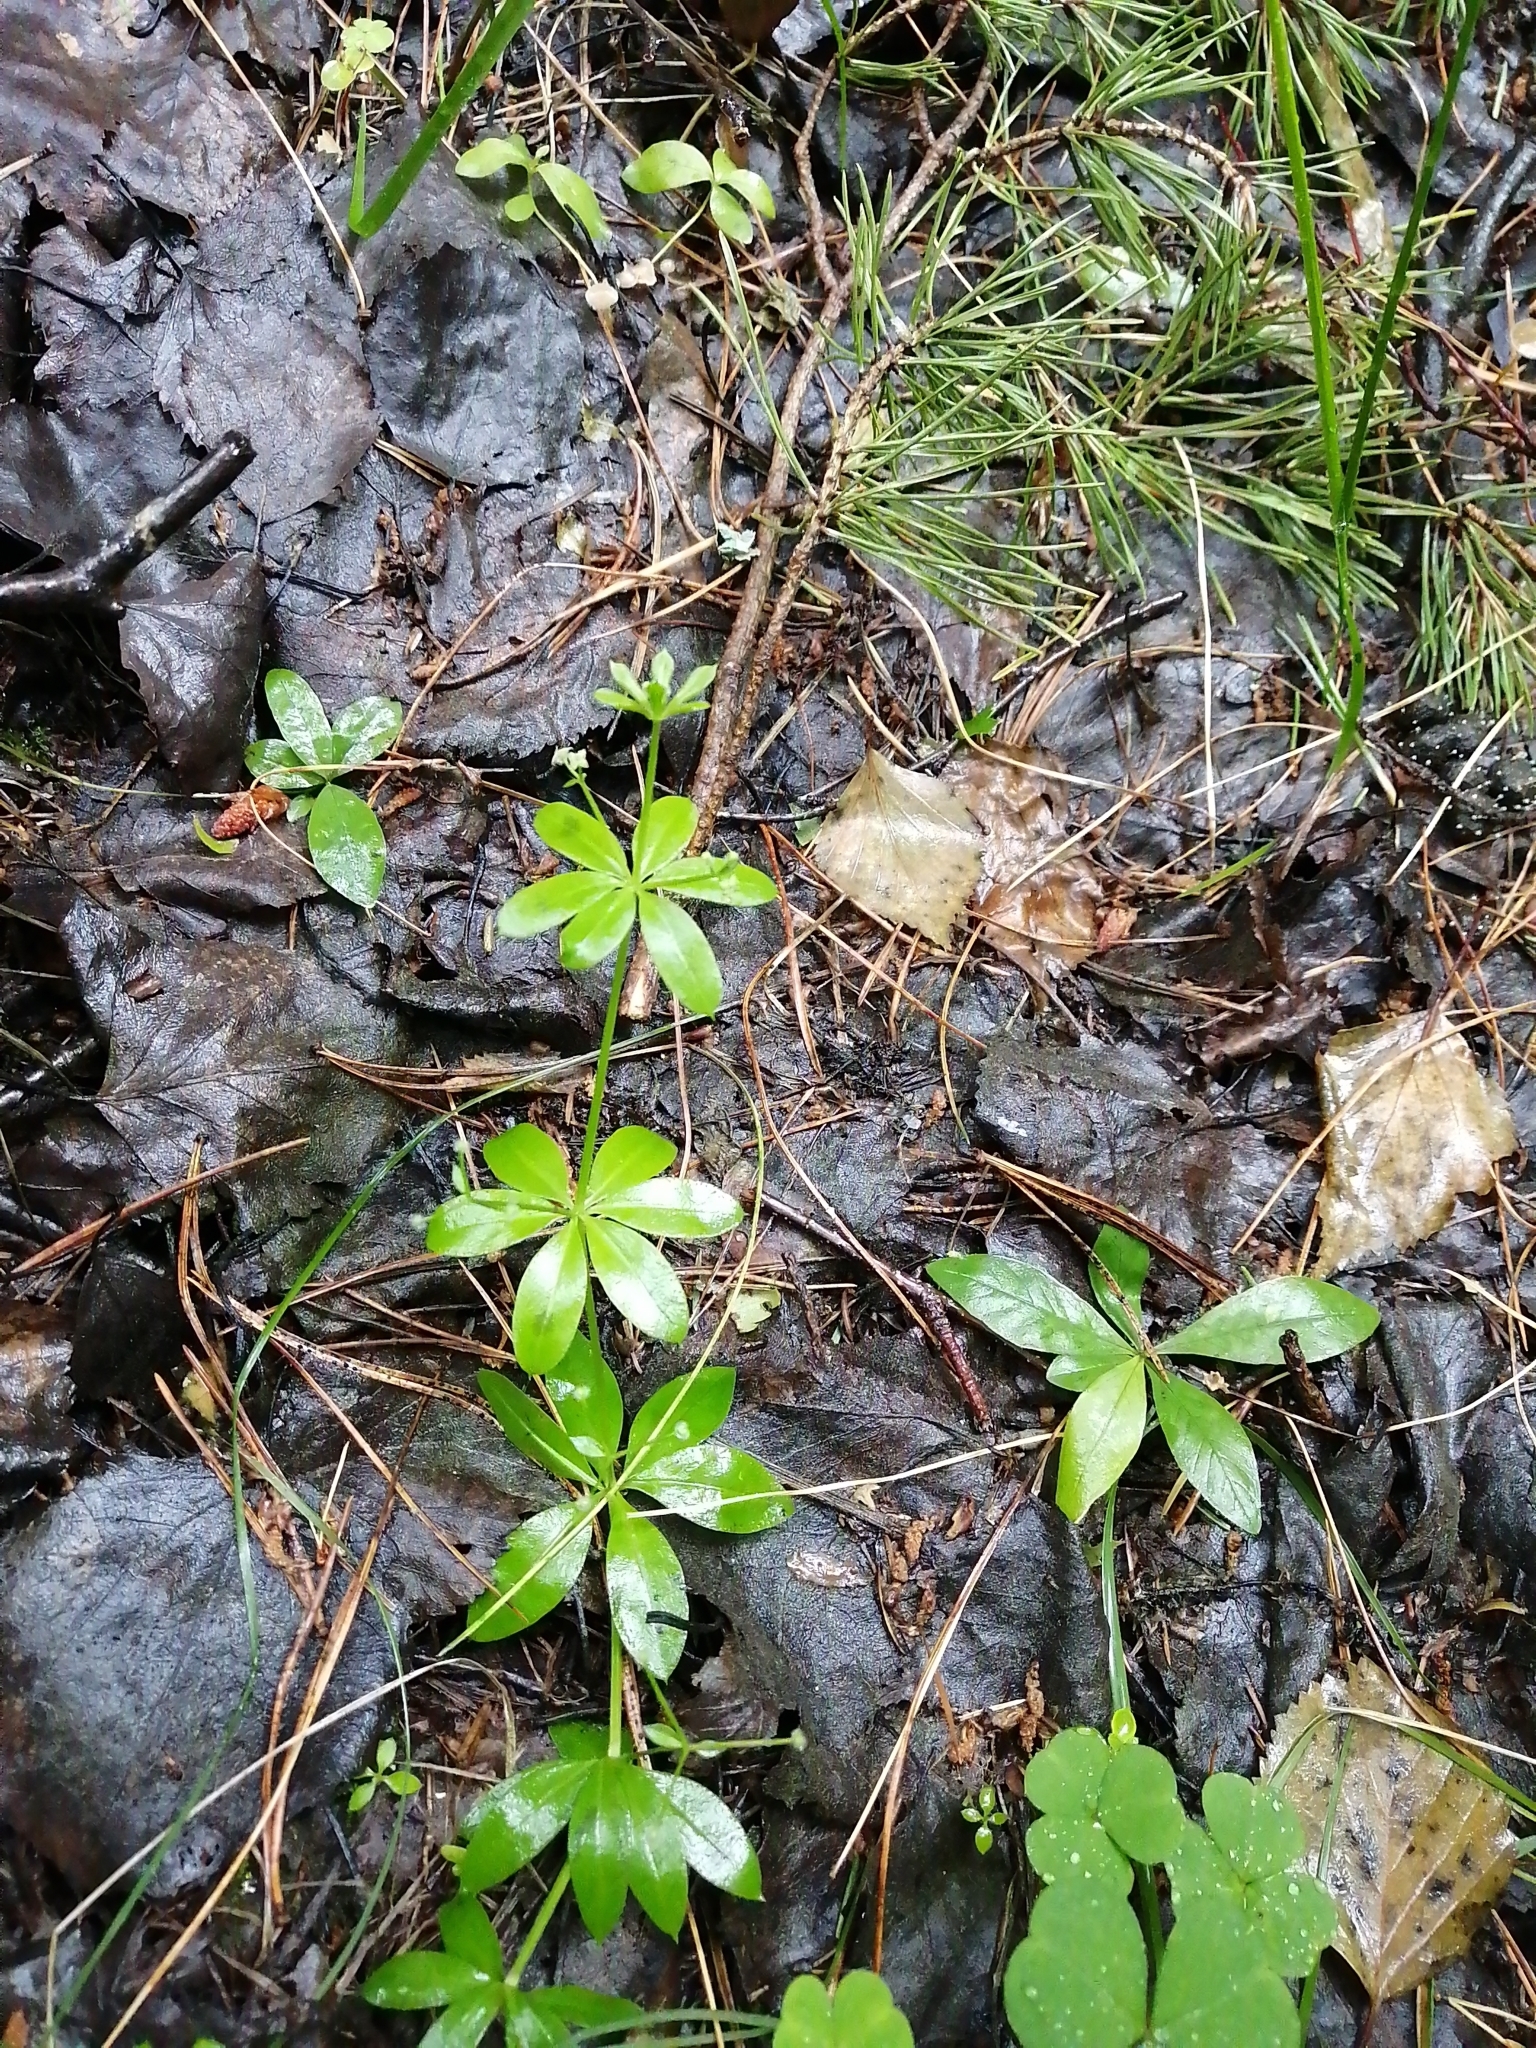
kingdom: Plantae
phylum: Tracheophyta
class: Magnoliopsida
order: Gentianales
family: Rubiaceae
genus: Galium
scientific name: Galium triflorum
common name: Fragrant bedstraw
